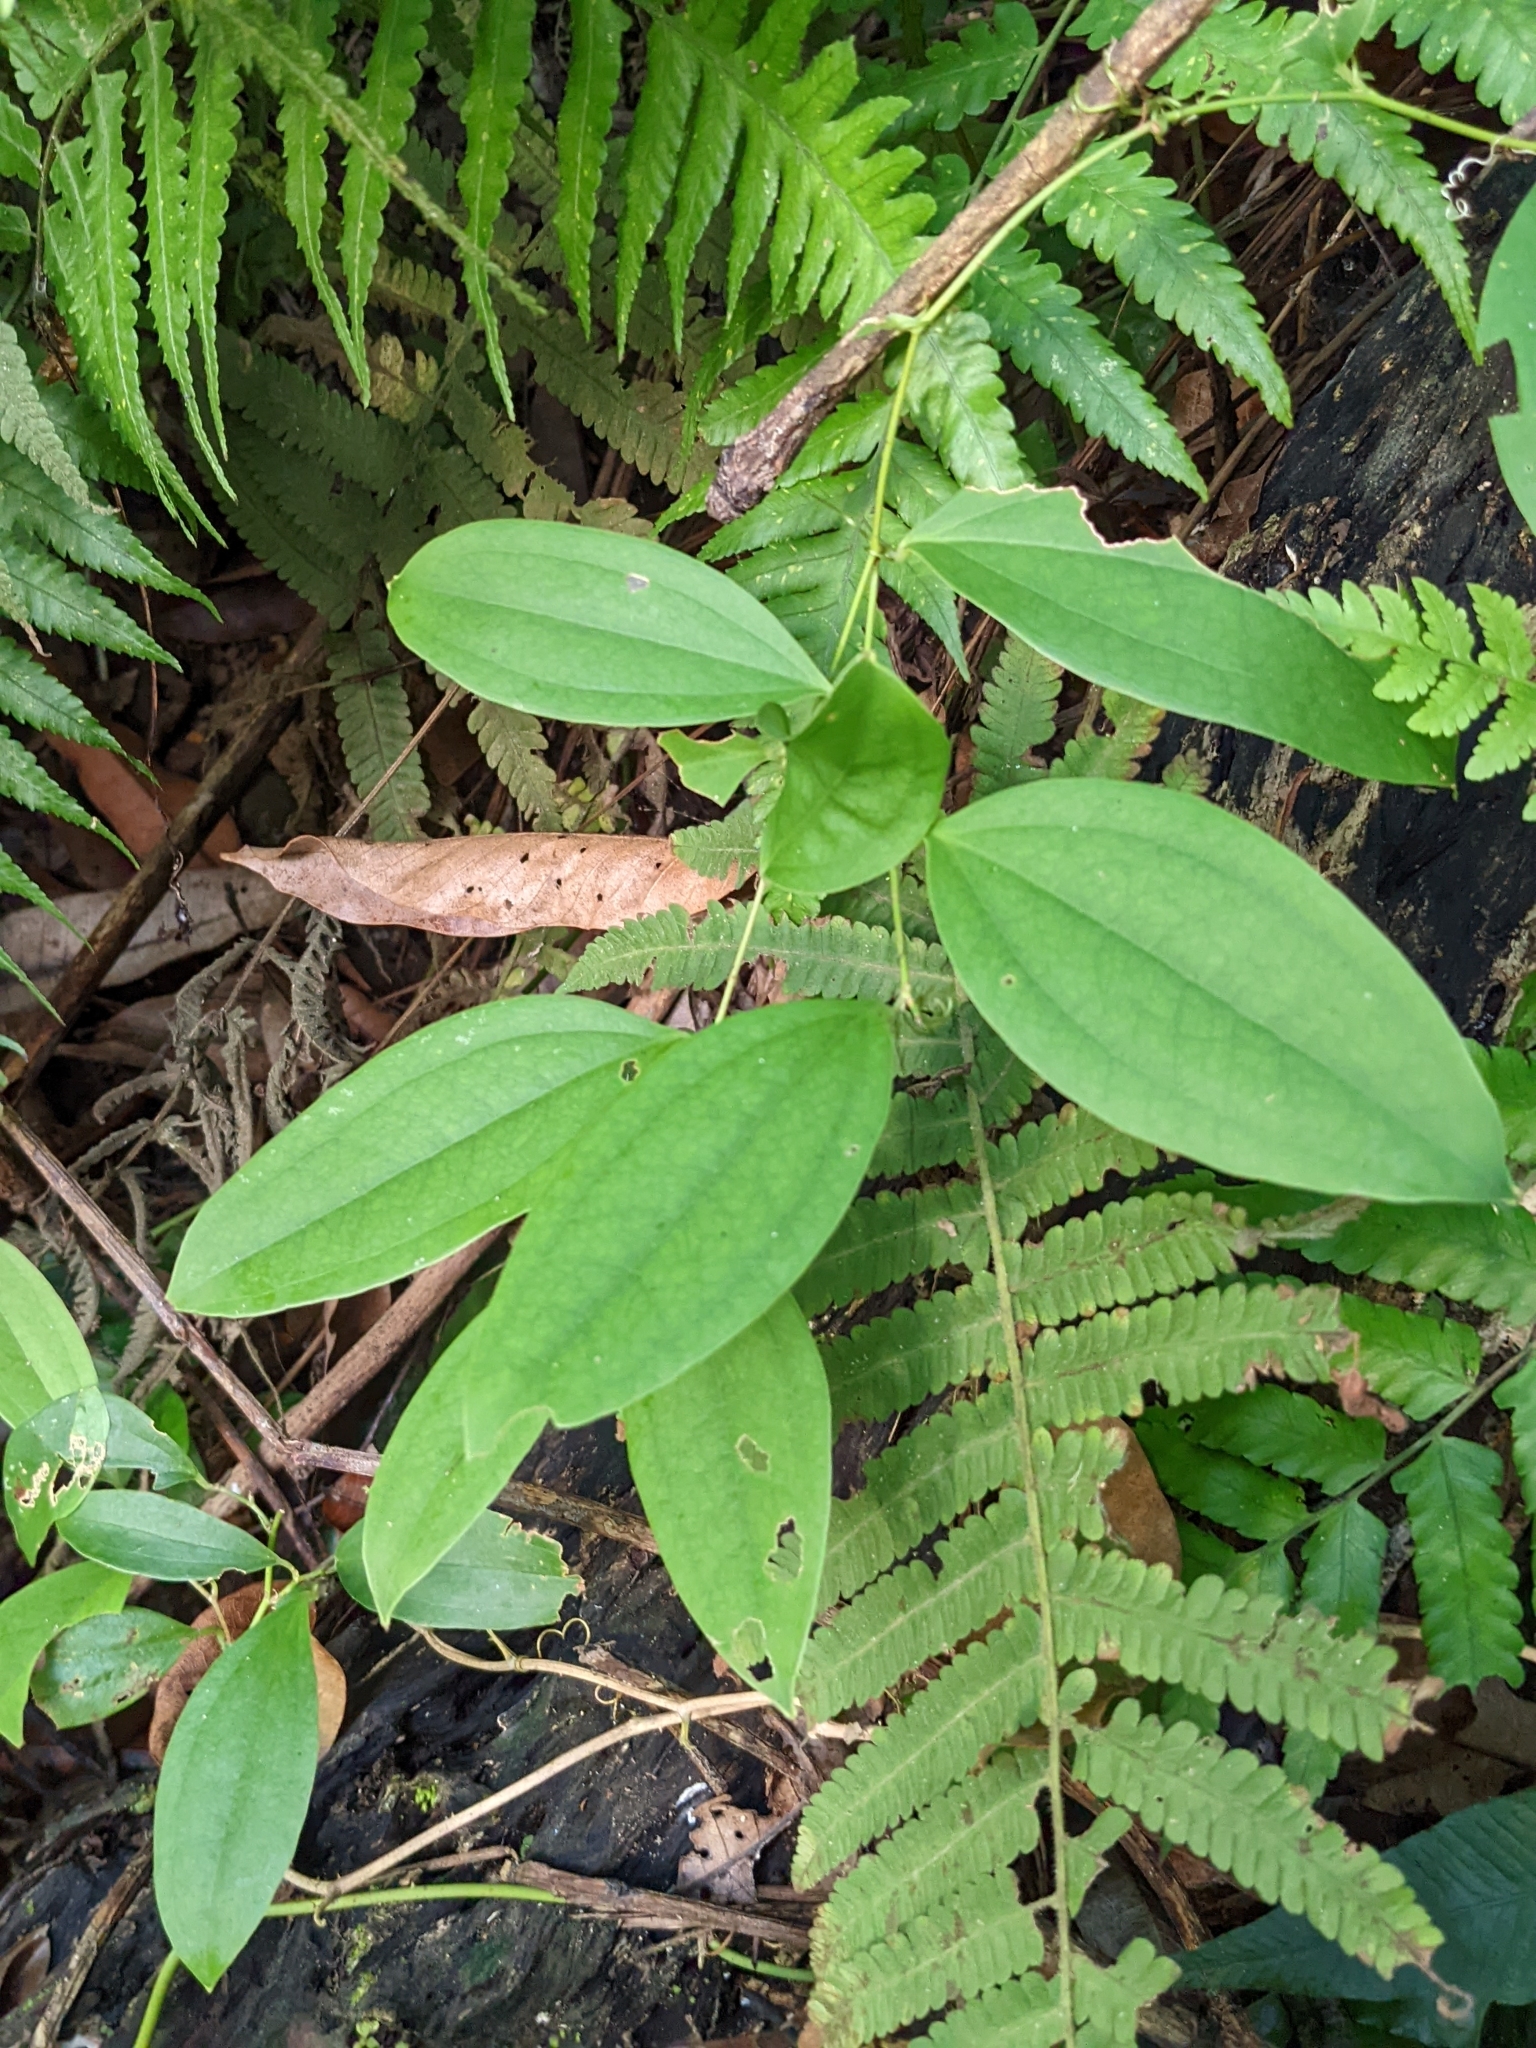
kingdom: Plantae
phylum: Tracheophyta
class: Liliopsida
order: Liliales
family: Smilacaceae
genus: Smilax
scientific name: Smilax bracteata
